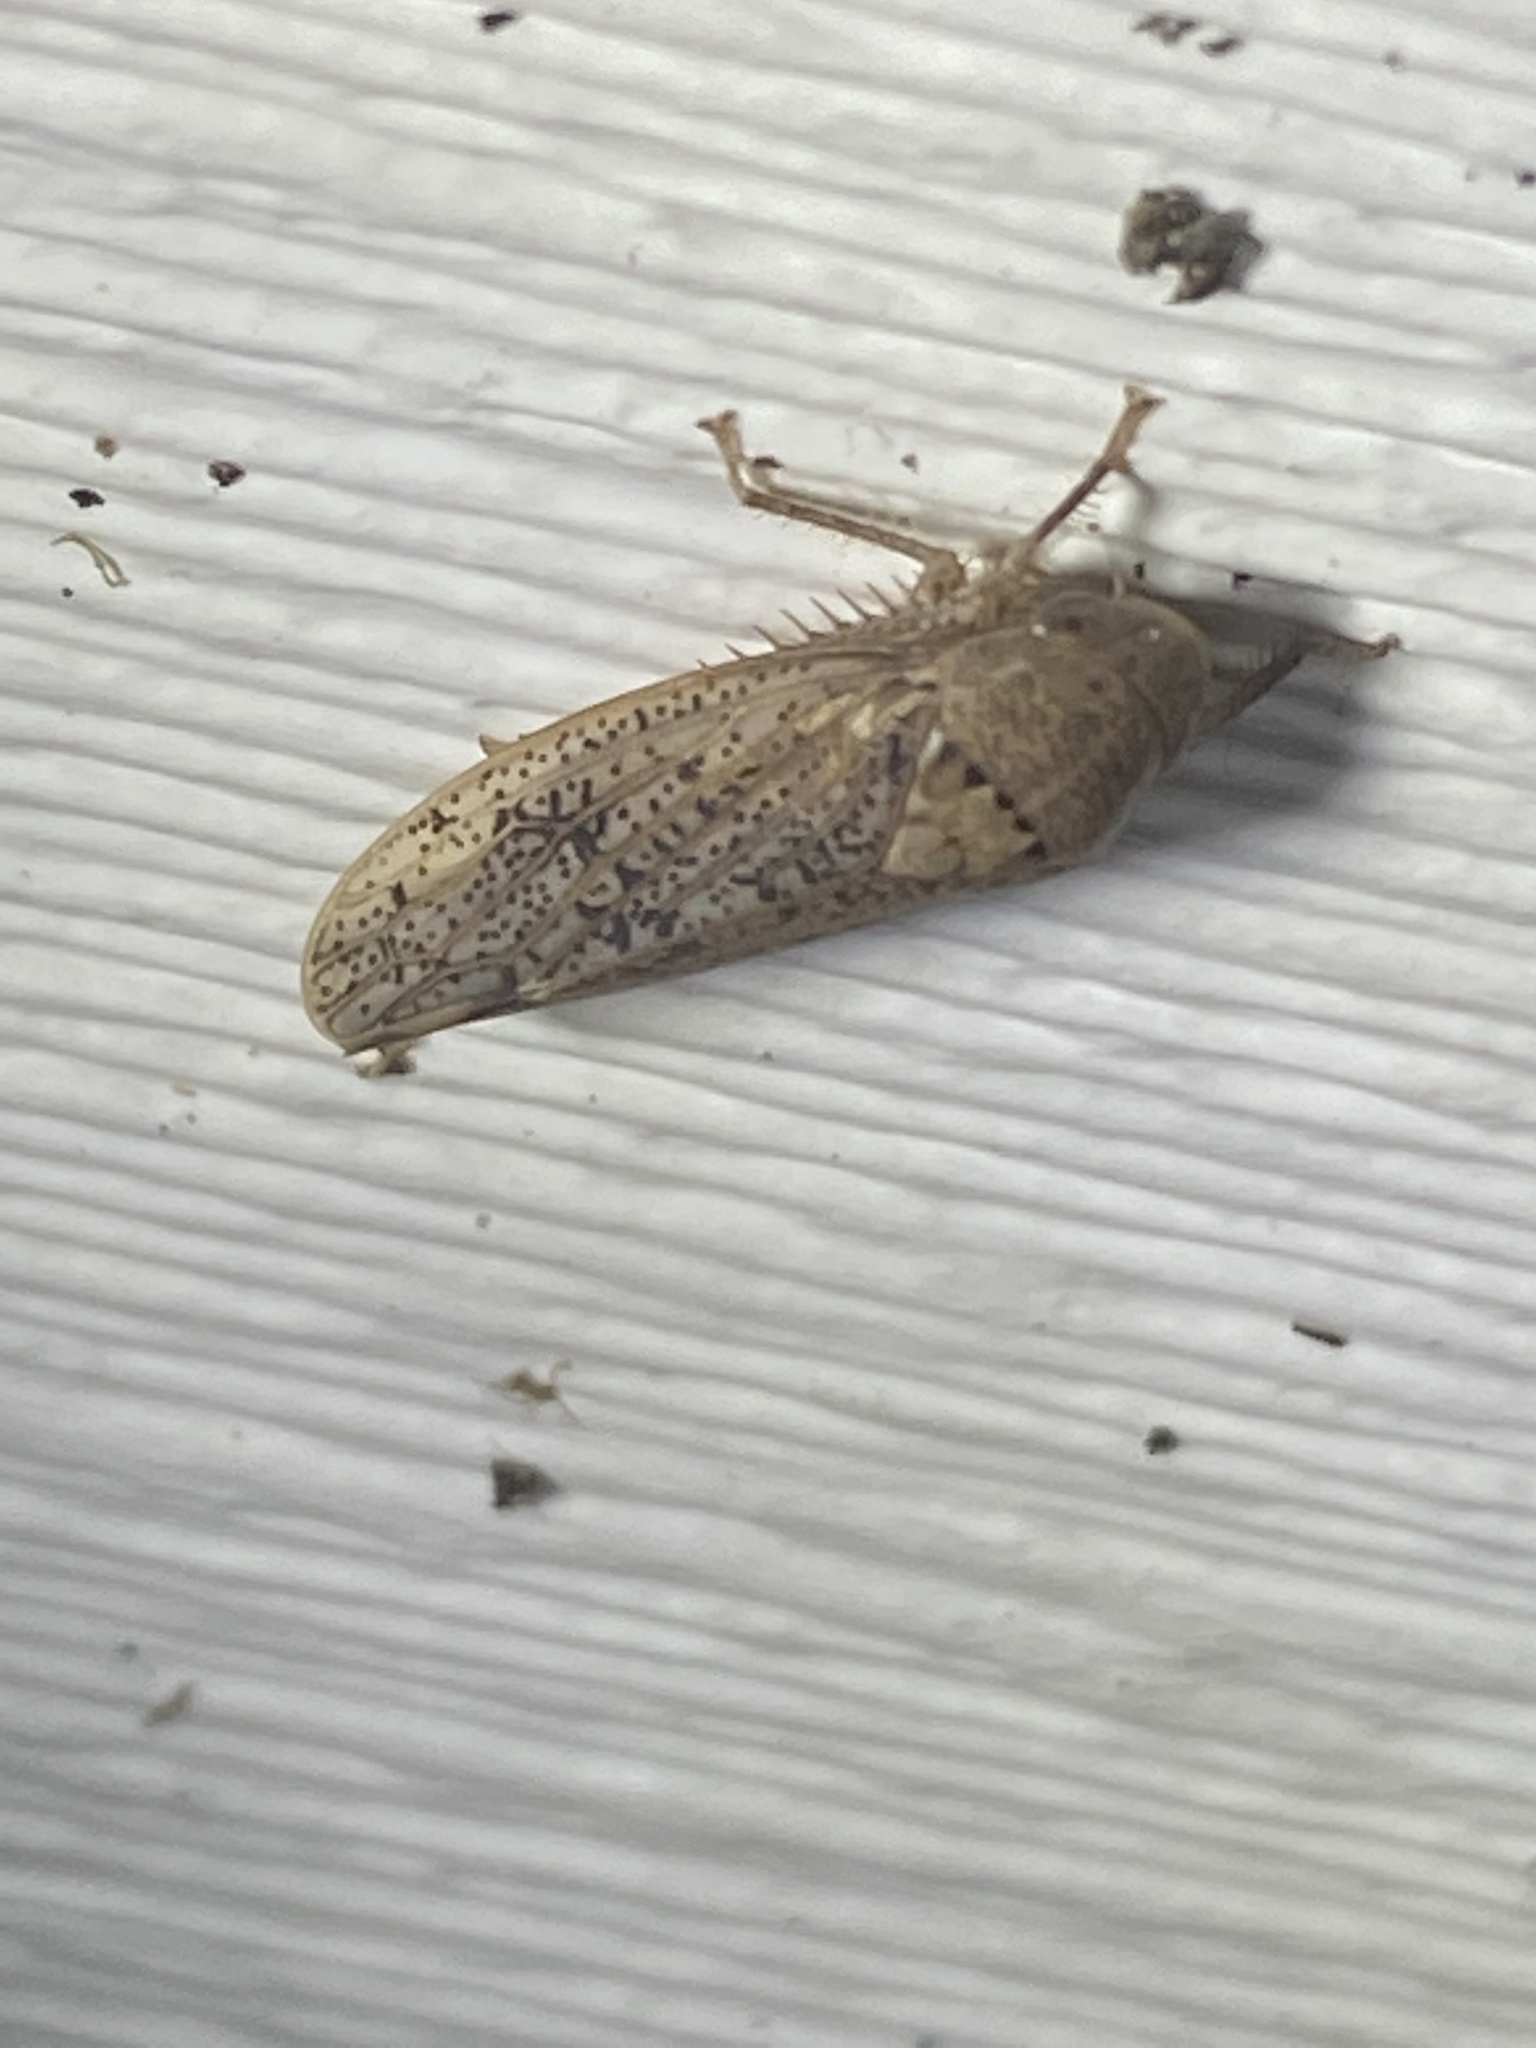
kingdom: Animalia
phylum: Arthropoda
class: Insecta
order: Hemiptera
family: Cicadellidae
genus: Ponana
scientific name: Ponana puncticollis
